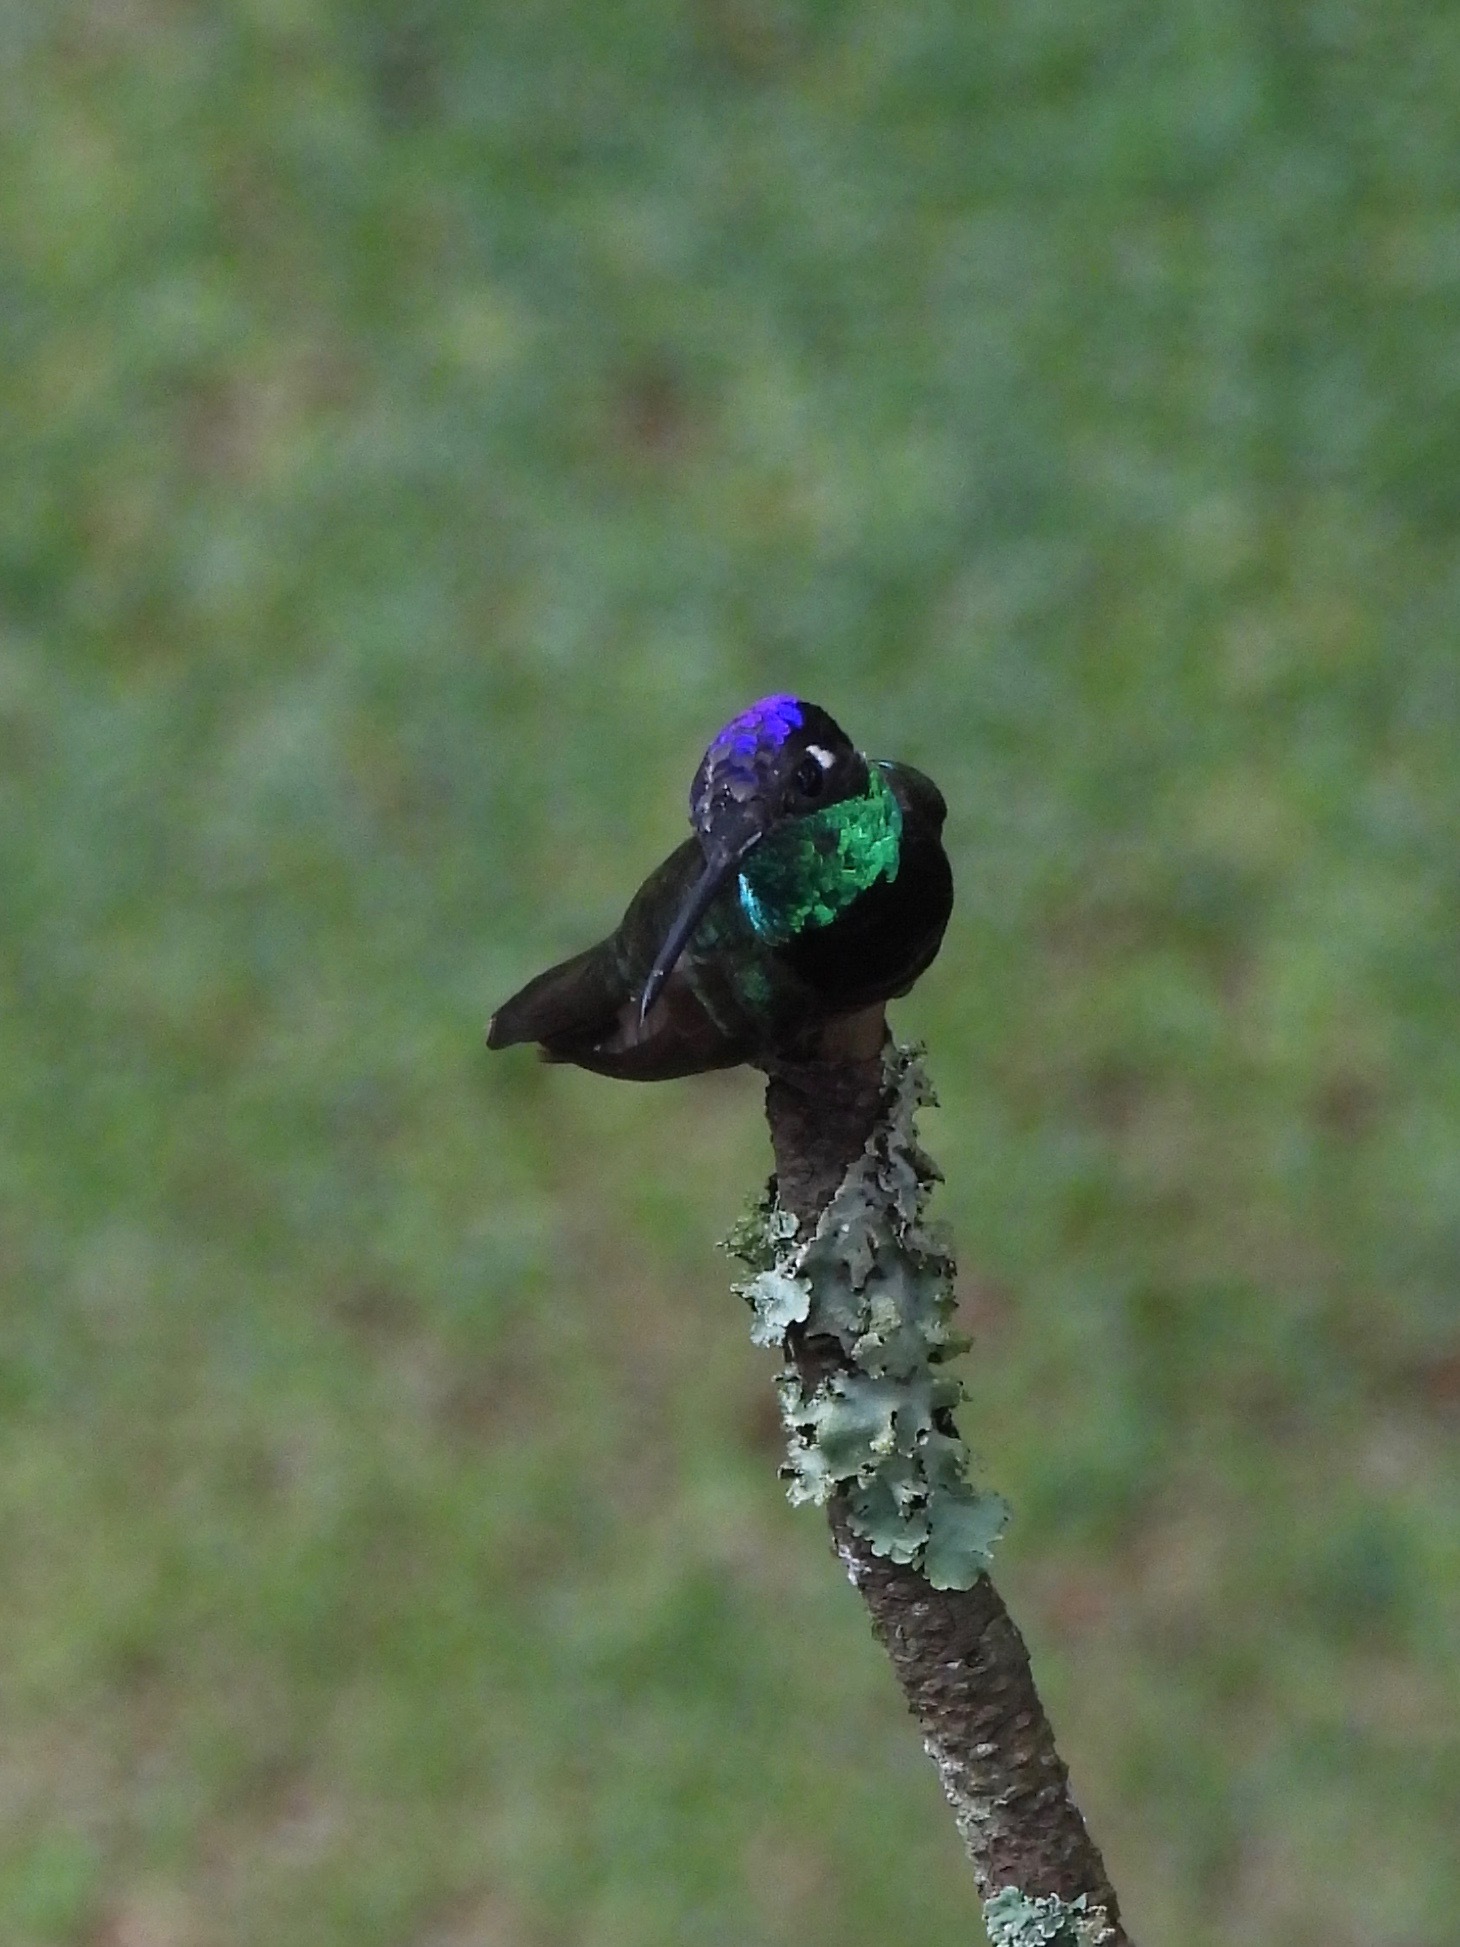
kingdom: Animalia
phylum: Chordata
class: Aves
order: Apodiformes
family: Trochilidae
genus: Eugenes
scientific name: Eugenes fulgens
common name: Magnificent hummingbird
